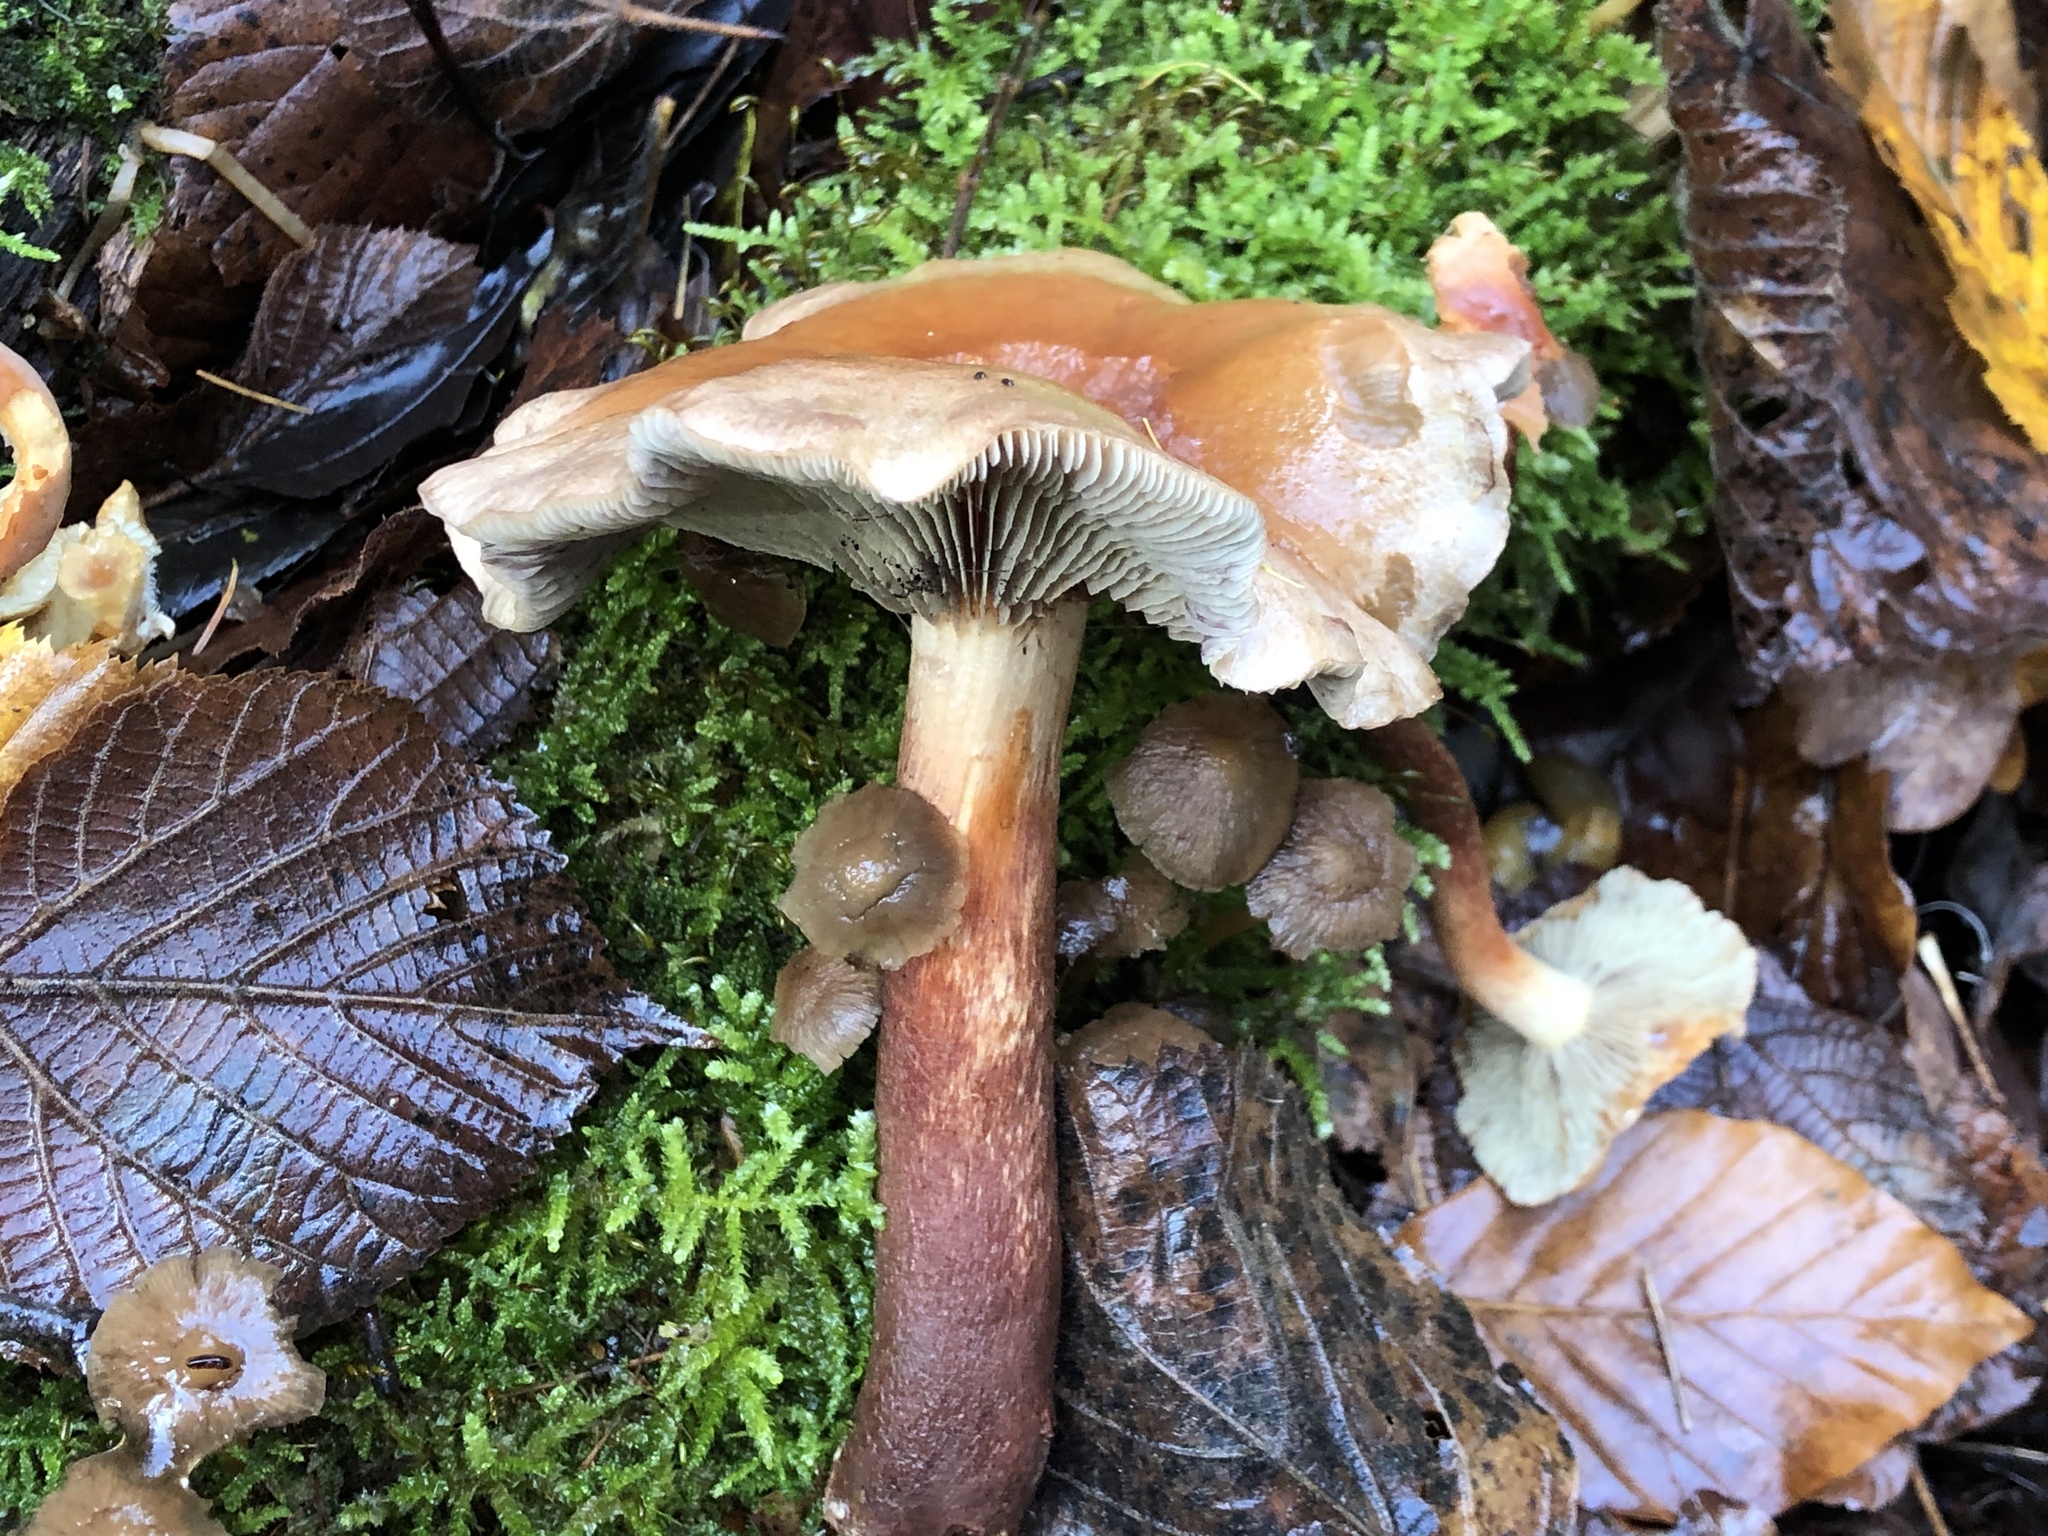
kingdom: Fungi
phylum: Basidiomycota
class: Agaricomycetes
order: Agaricales
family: Strophariaceae
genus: Hypholoma
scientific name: Hypholoma lateritium
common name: Brick caps
